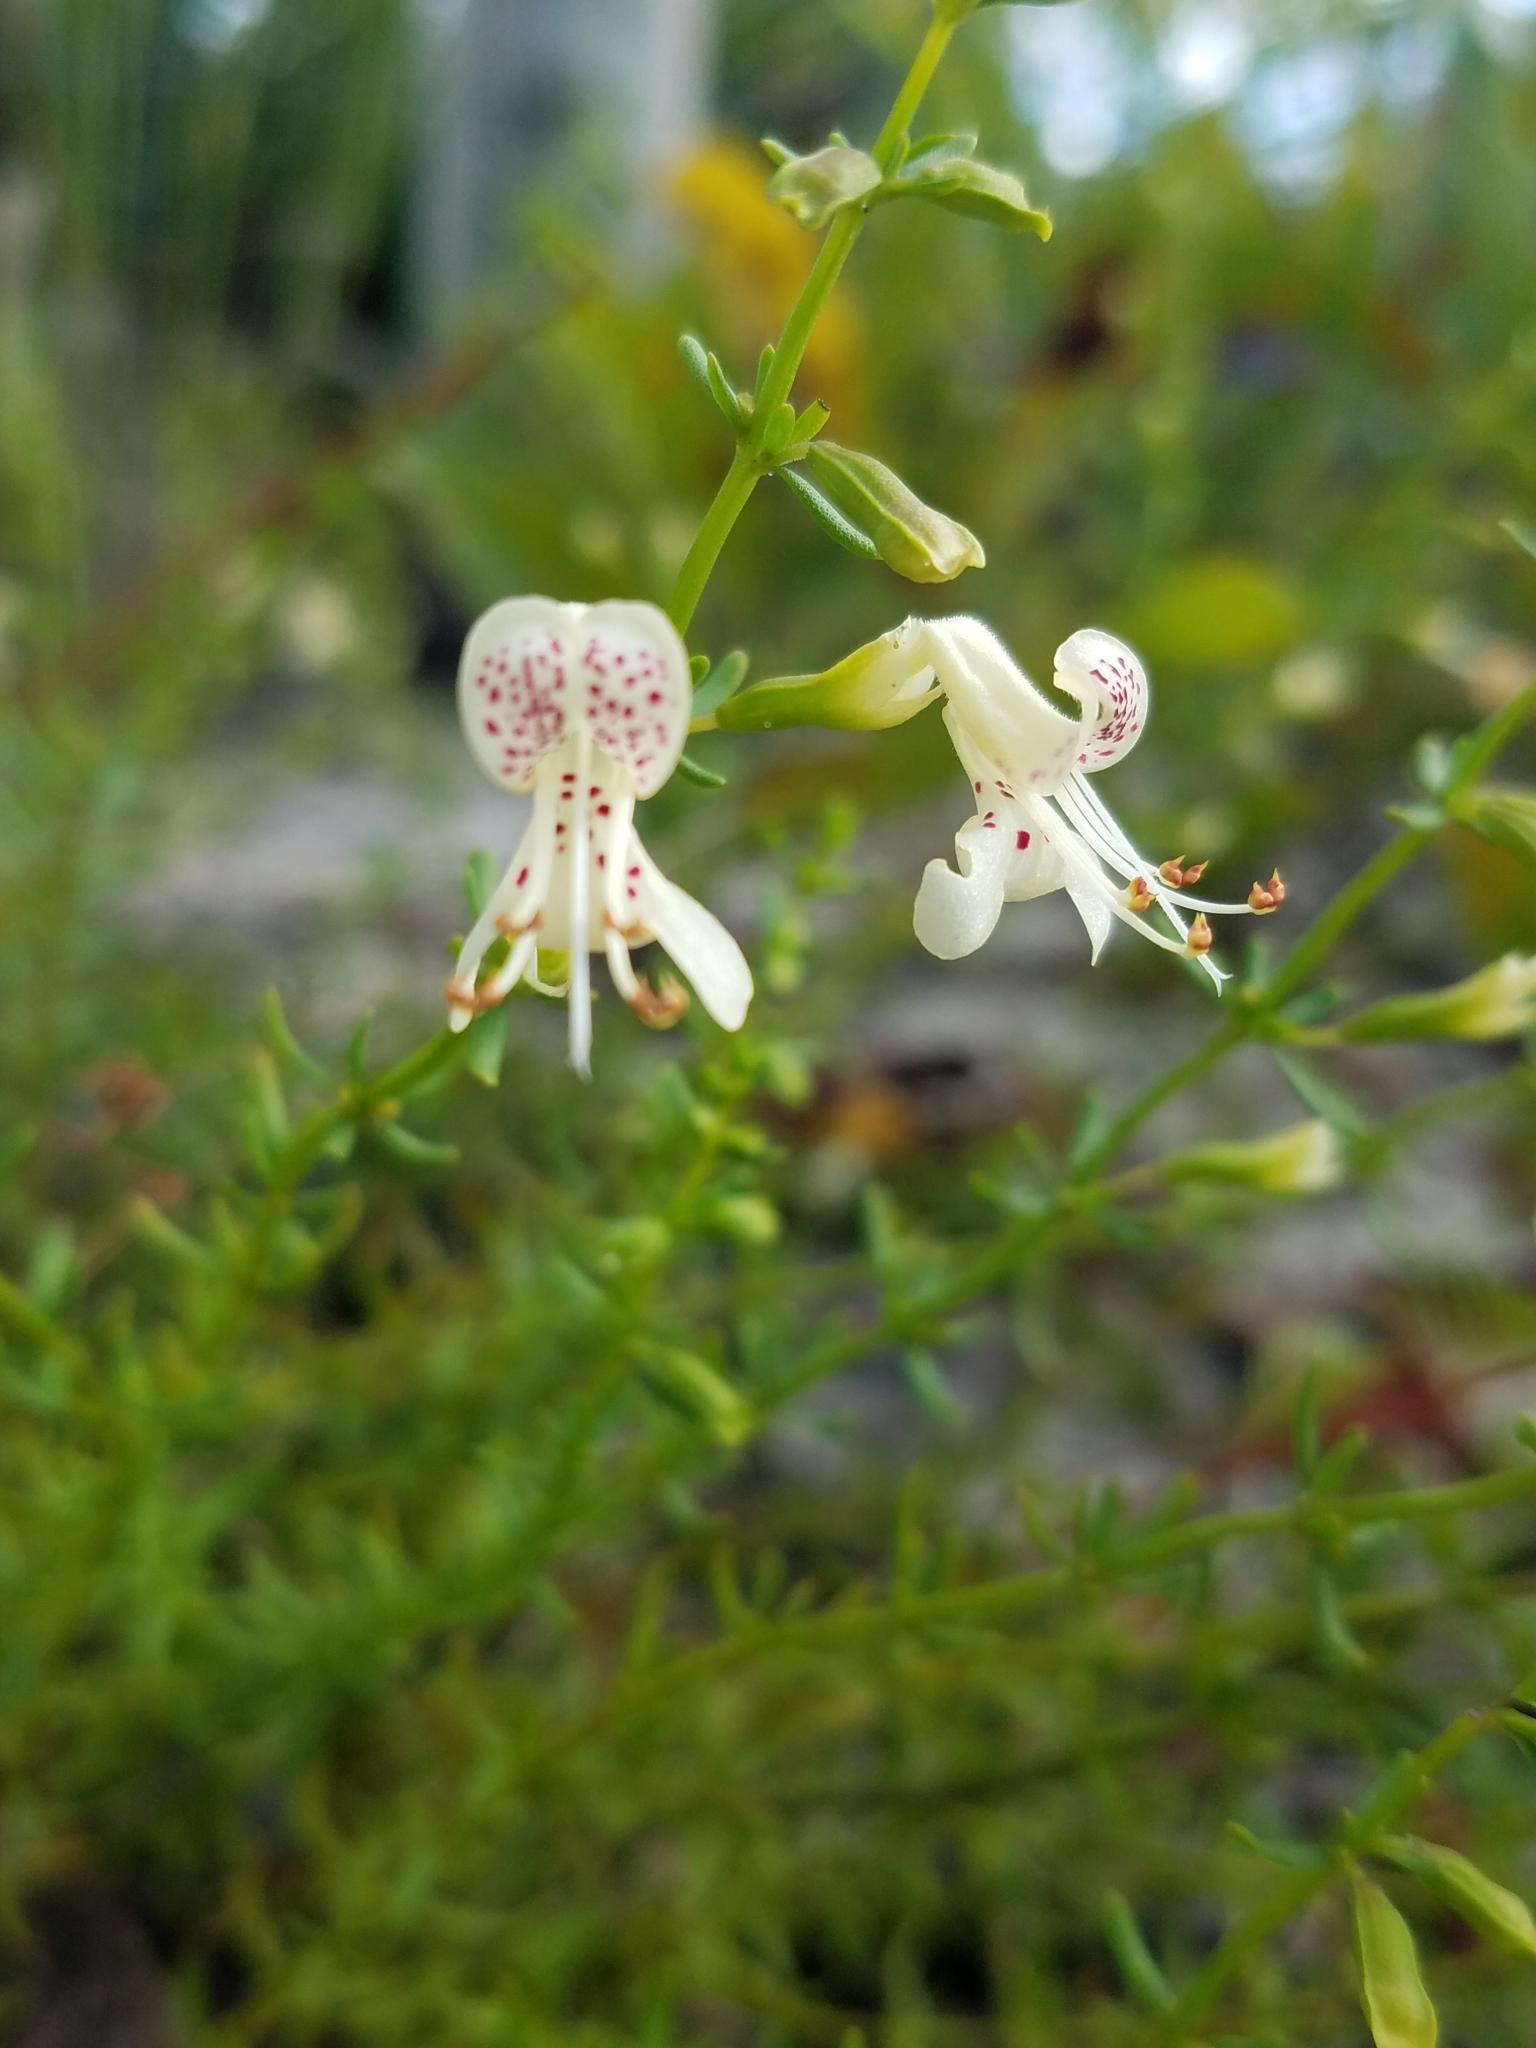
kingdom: Plantae
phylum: Tracheophyta
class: Magnoliopsida
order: Lamiales
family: Lamiaceae
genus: Dicerandra
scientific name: Dicerandra frutescens
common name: Scrub-mint
